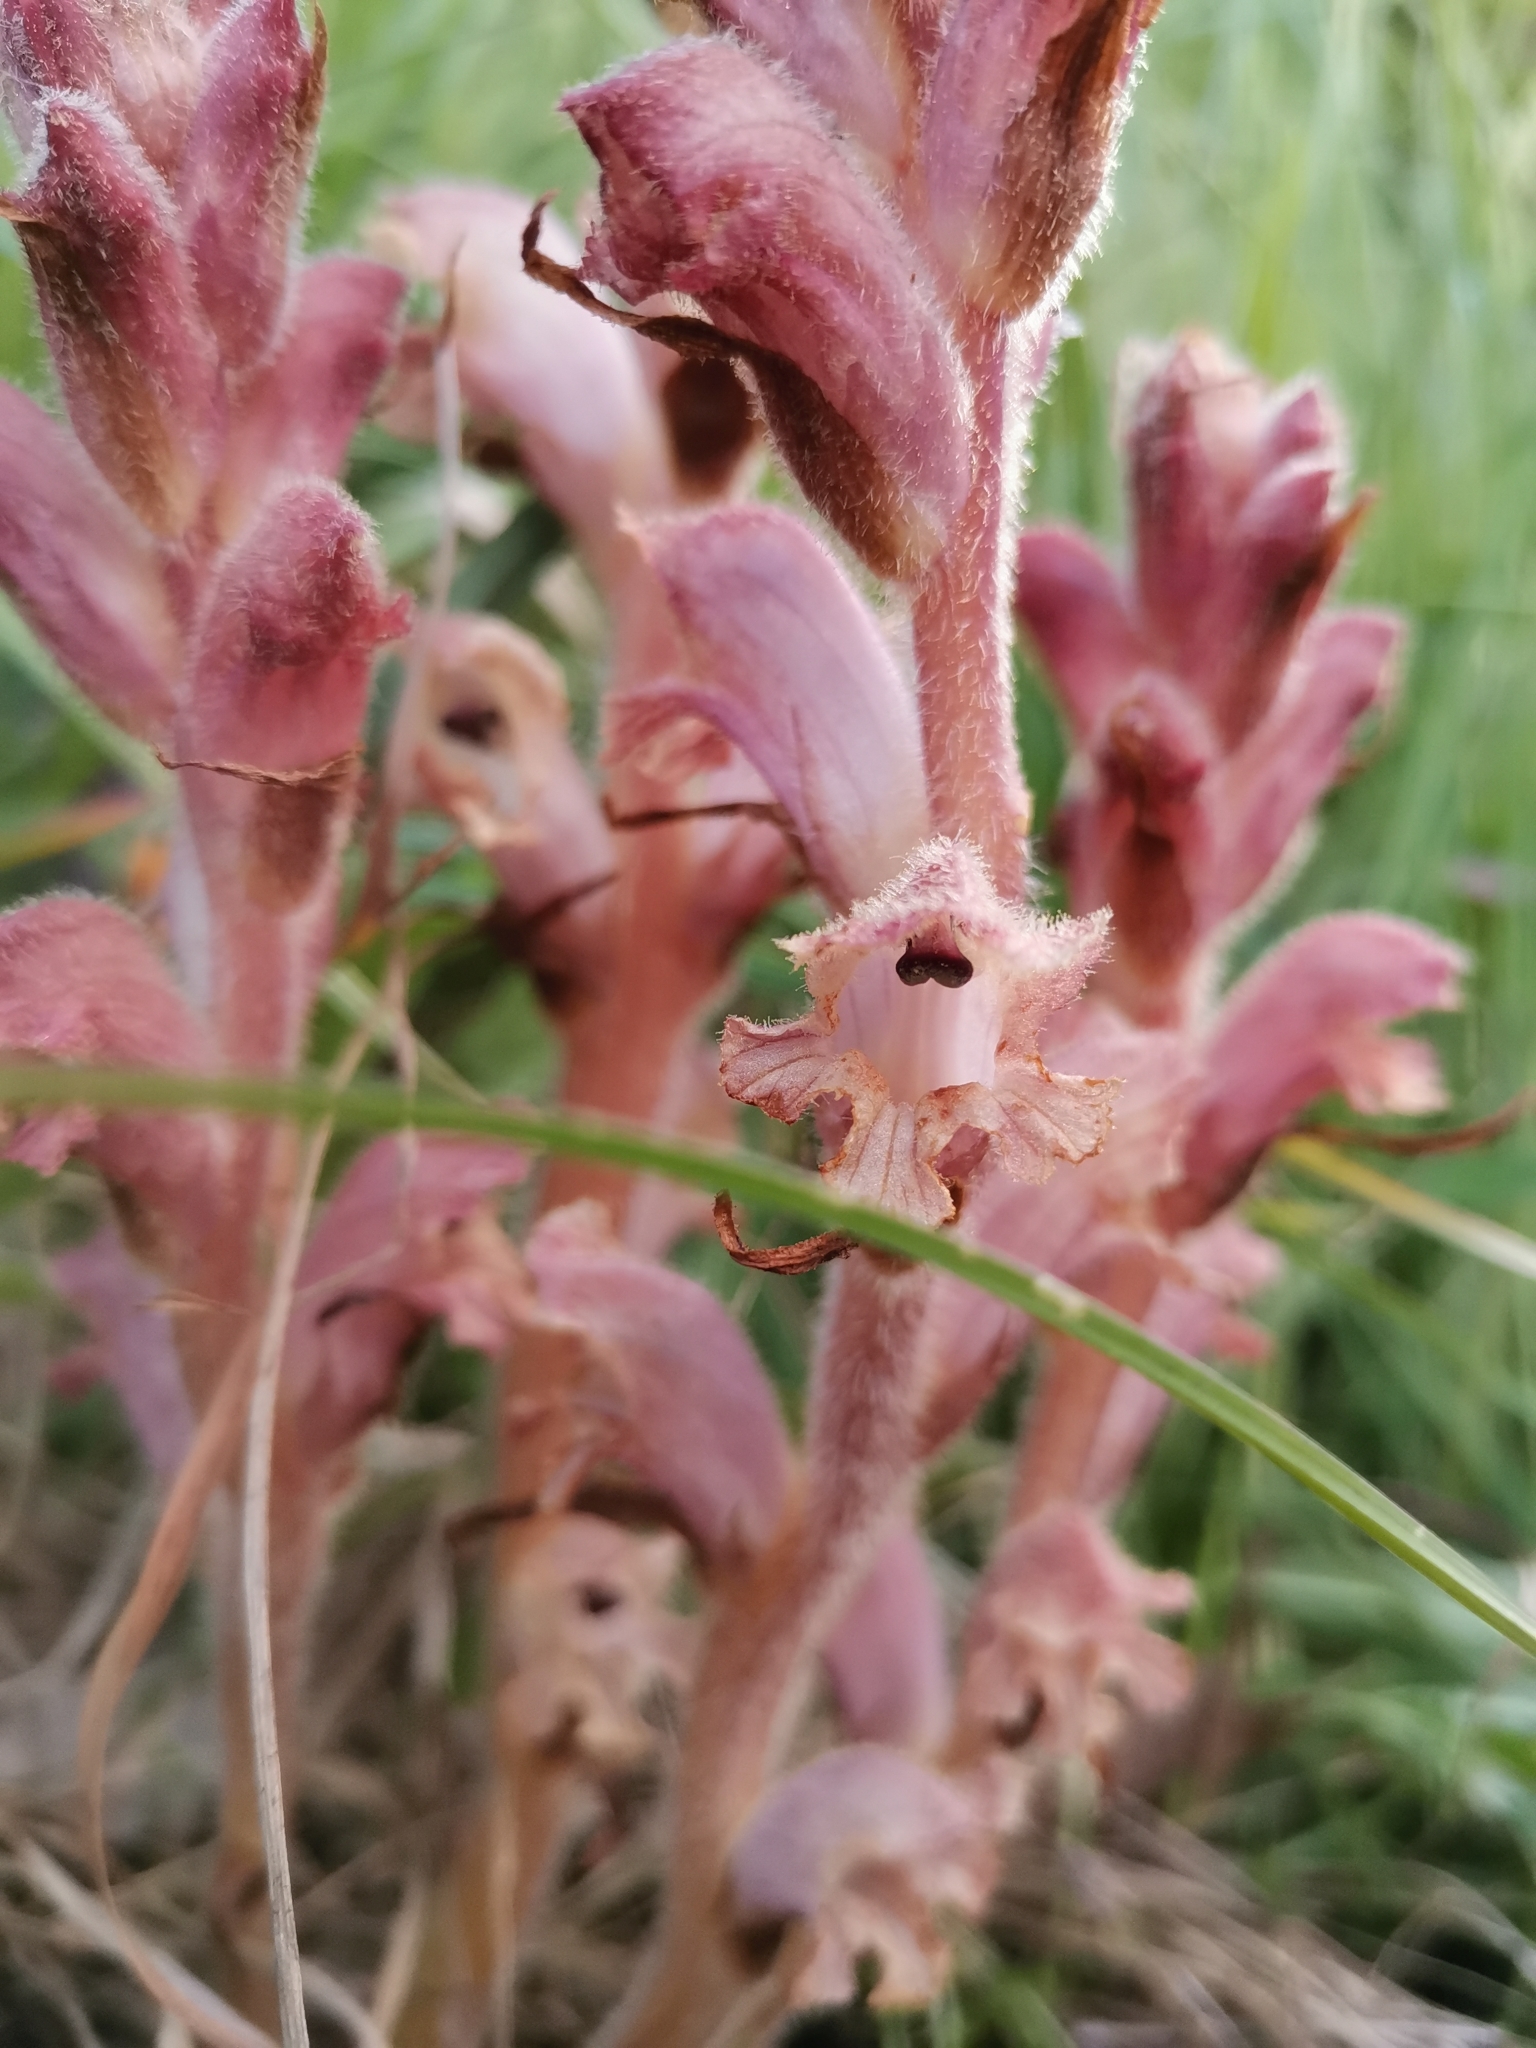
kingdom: Plantae
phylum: Tracheophyta
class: Magnoliopsida
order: Lamiales
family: Orobanchaceae
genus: Orobanche
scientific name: Orobanche caryophyllacea
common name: Bedstraw broomrape
